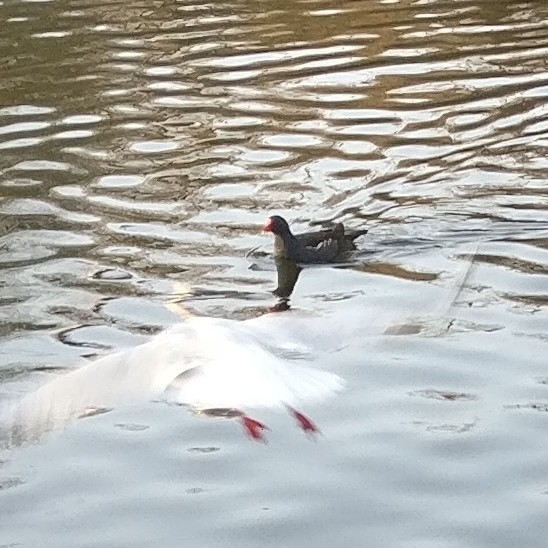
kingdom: Animalia
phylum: Chordata
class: Aves
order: Gruiformes
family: Rallidae
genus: Gallinula
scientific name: Gallinula chloropus
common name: Common moorhen
